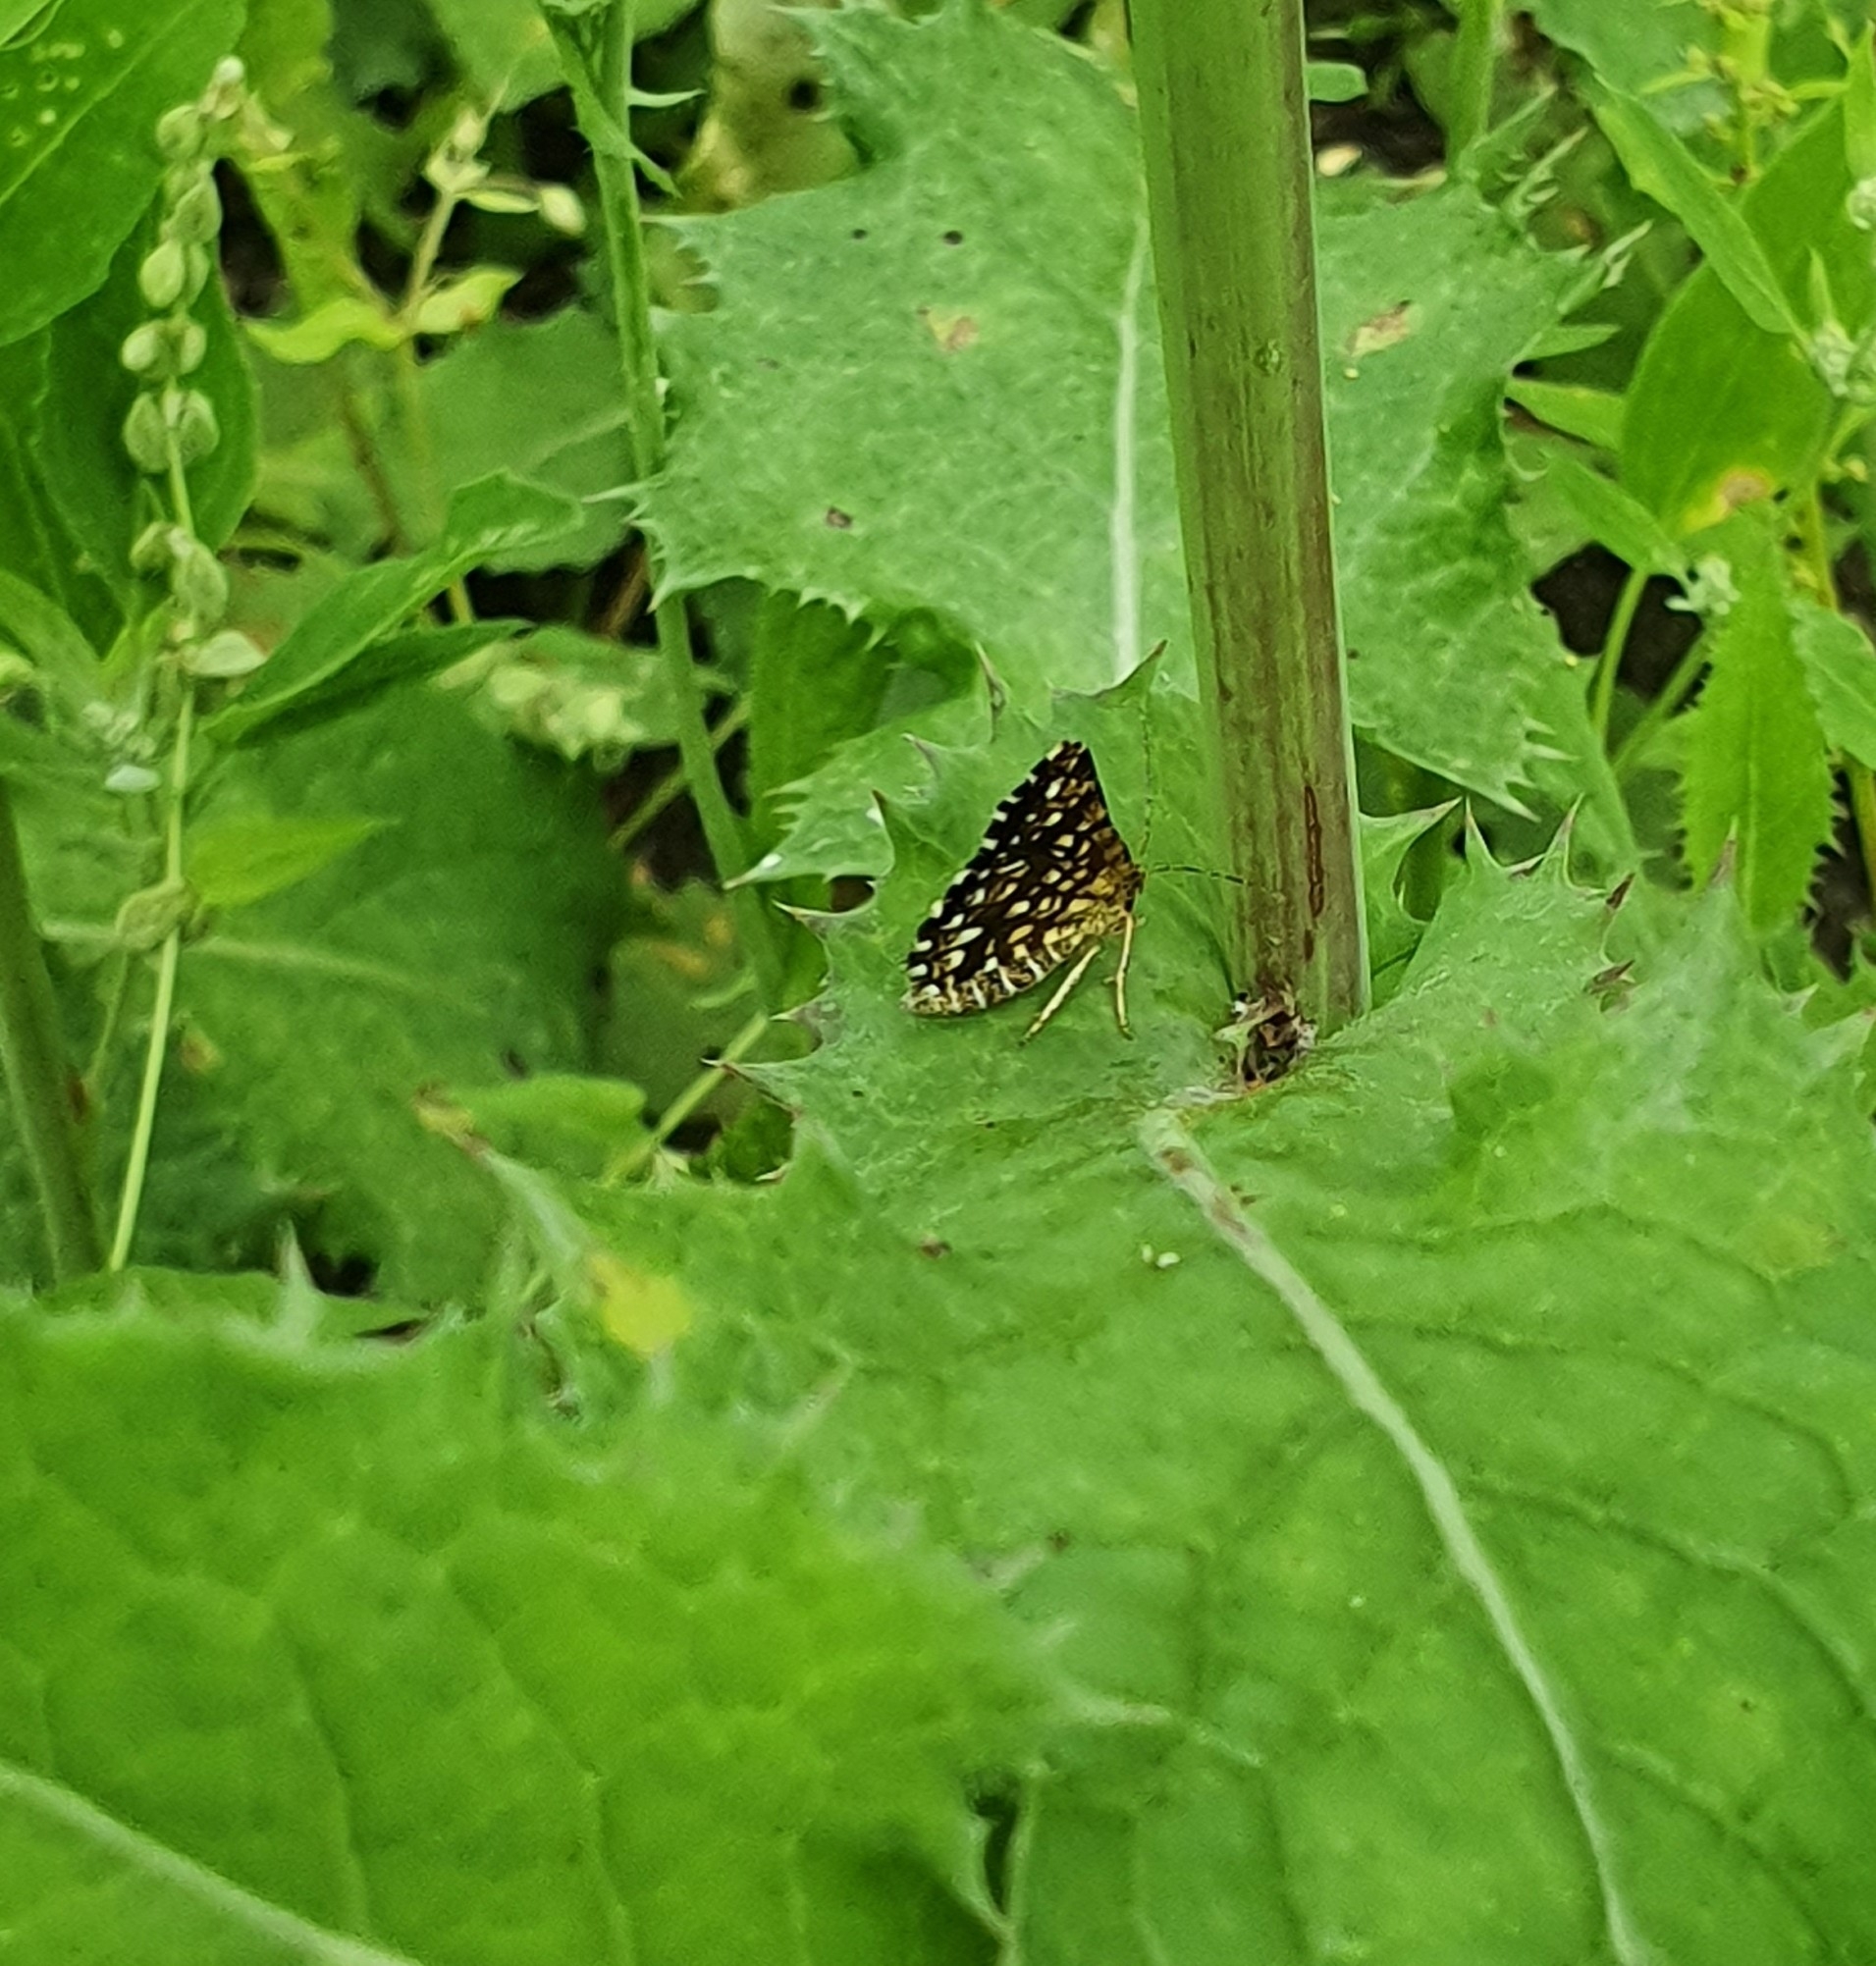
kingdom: Animalia
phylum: Arthropoda
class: Insecta
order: Lepidoptera
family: Geometridae
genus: Chiasmia
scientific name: Chiasmia clathrata
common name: Latticed heath
